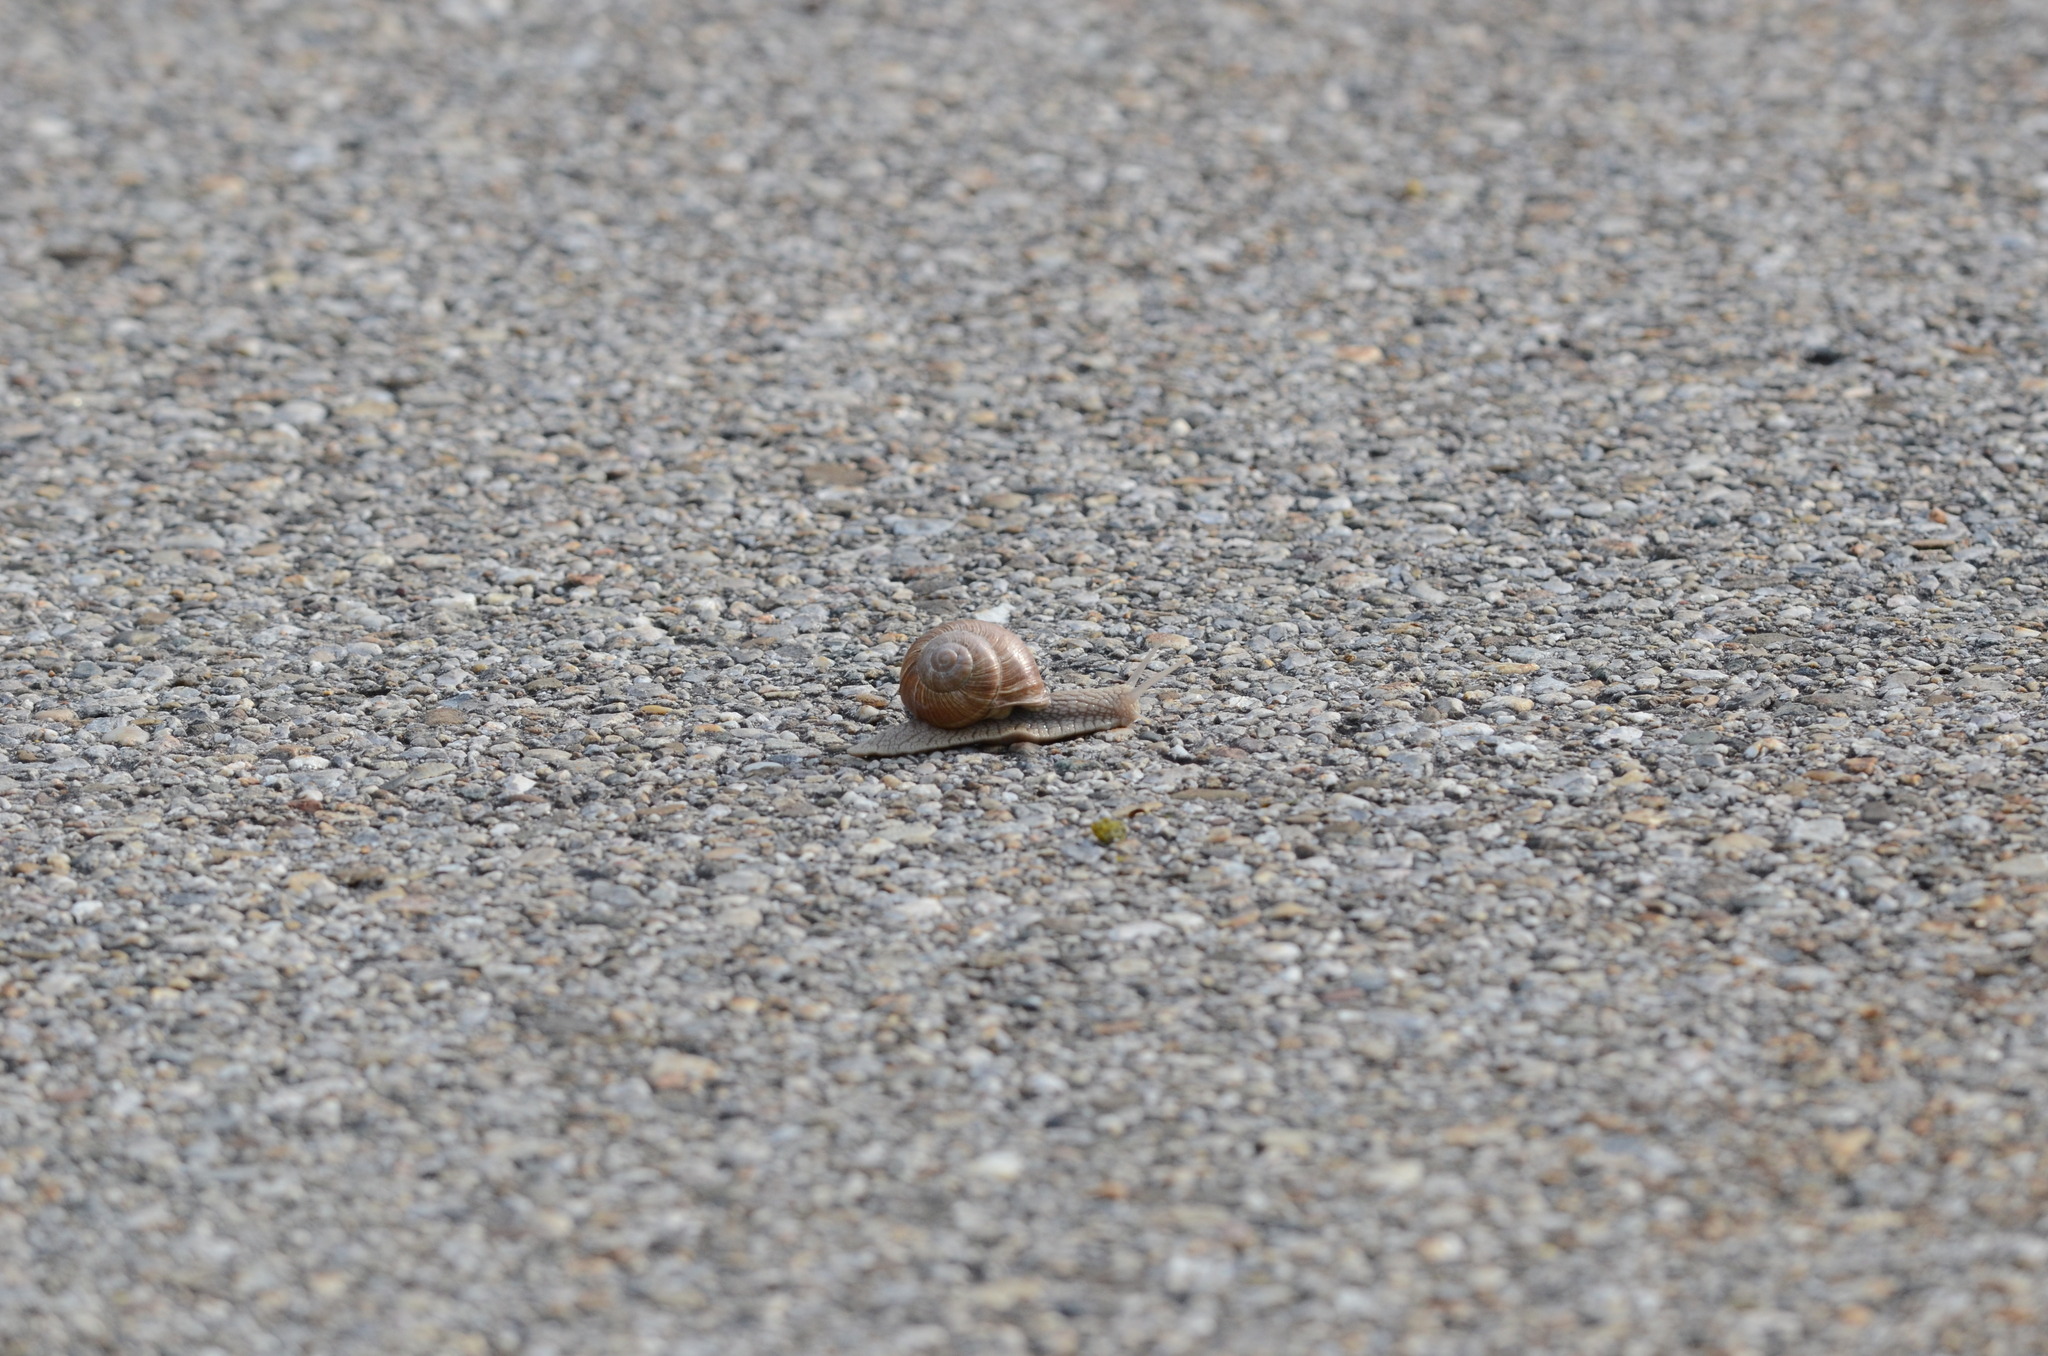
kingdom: Animalia
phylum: Mollusca
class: Gastropoda
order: Stylommatophora
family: Helicidae
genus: Helix
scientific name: Helix pomatia
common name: Roman snail
